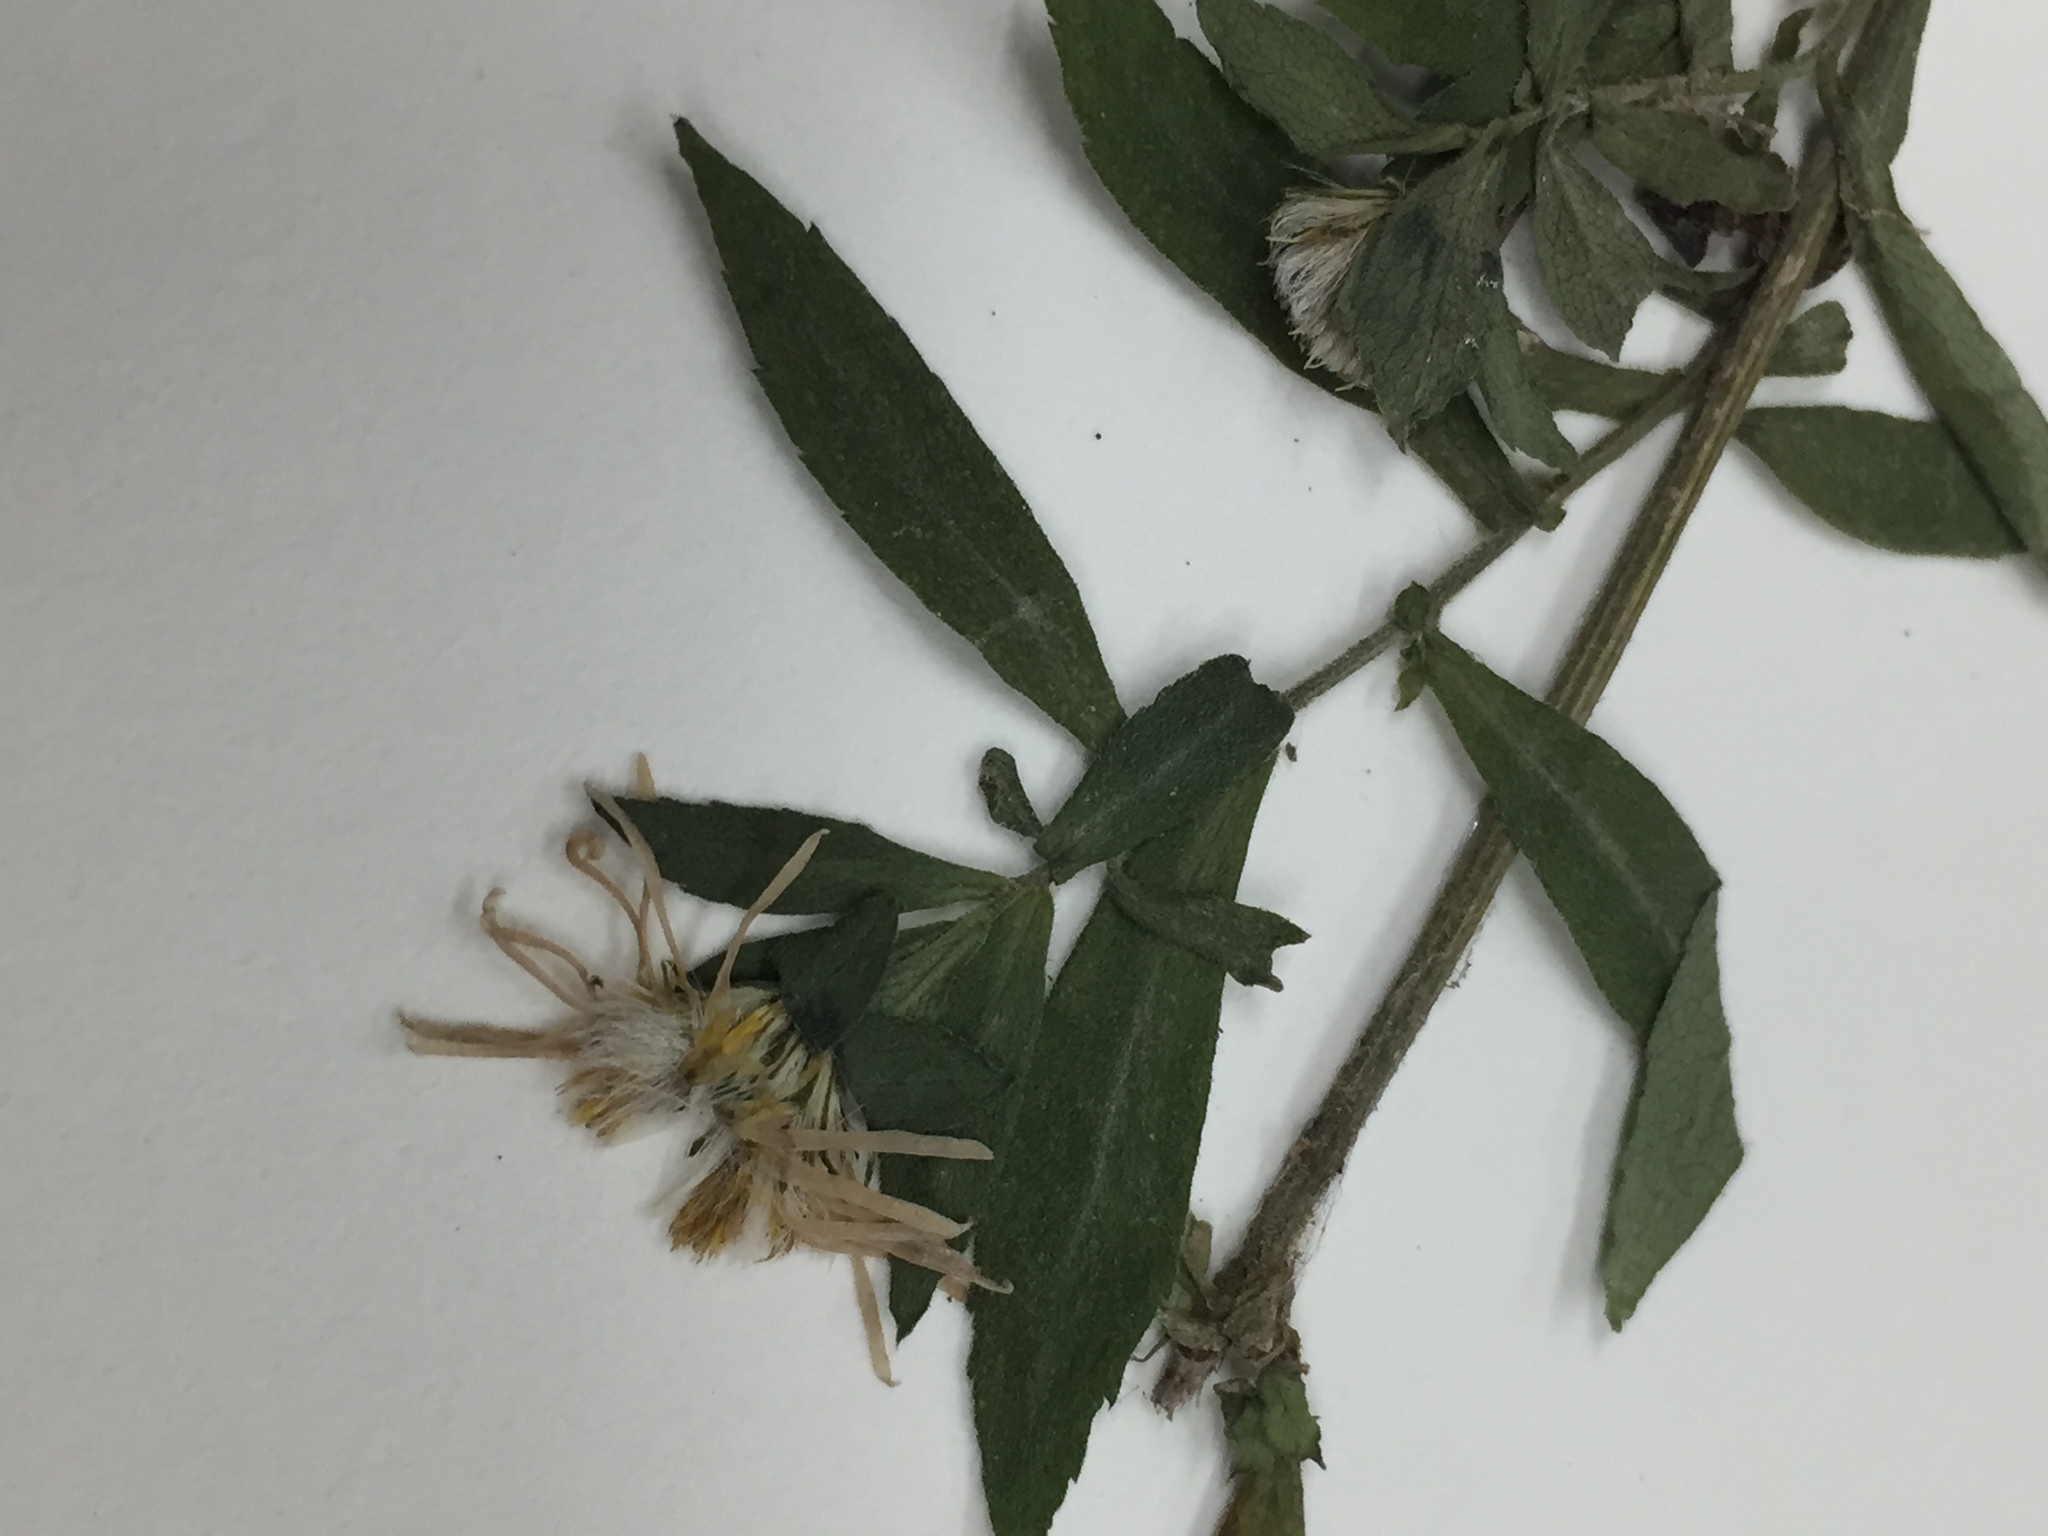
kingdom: Plantae
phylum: Tracheophyta
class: Magnoliopsida
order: Asterales
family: Asteraceae
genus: Symphyotrichum
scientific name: Symphyotrichum ontarionis
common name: Bottomland aster
